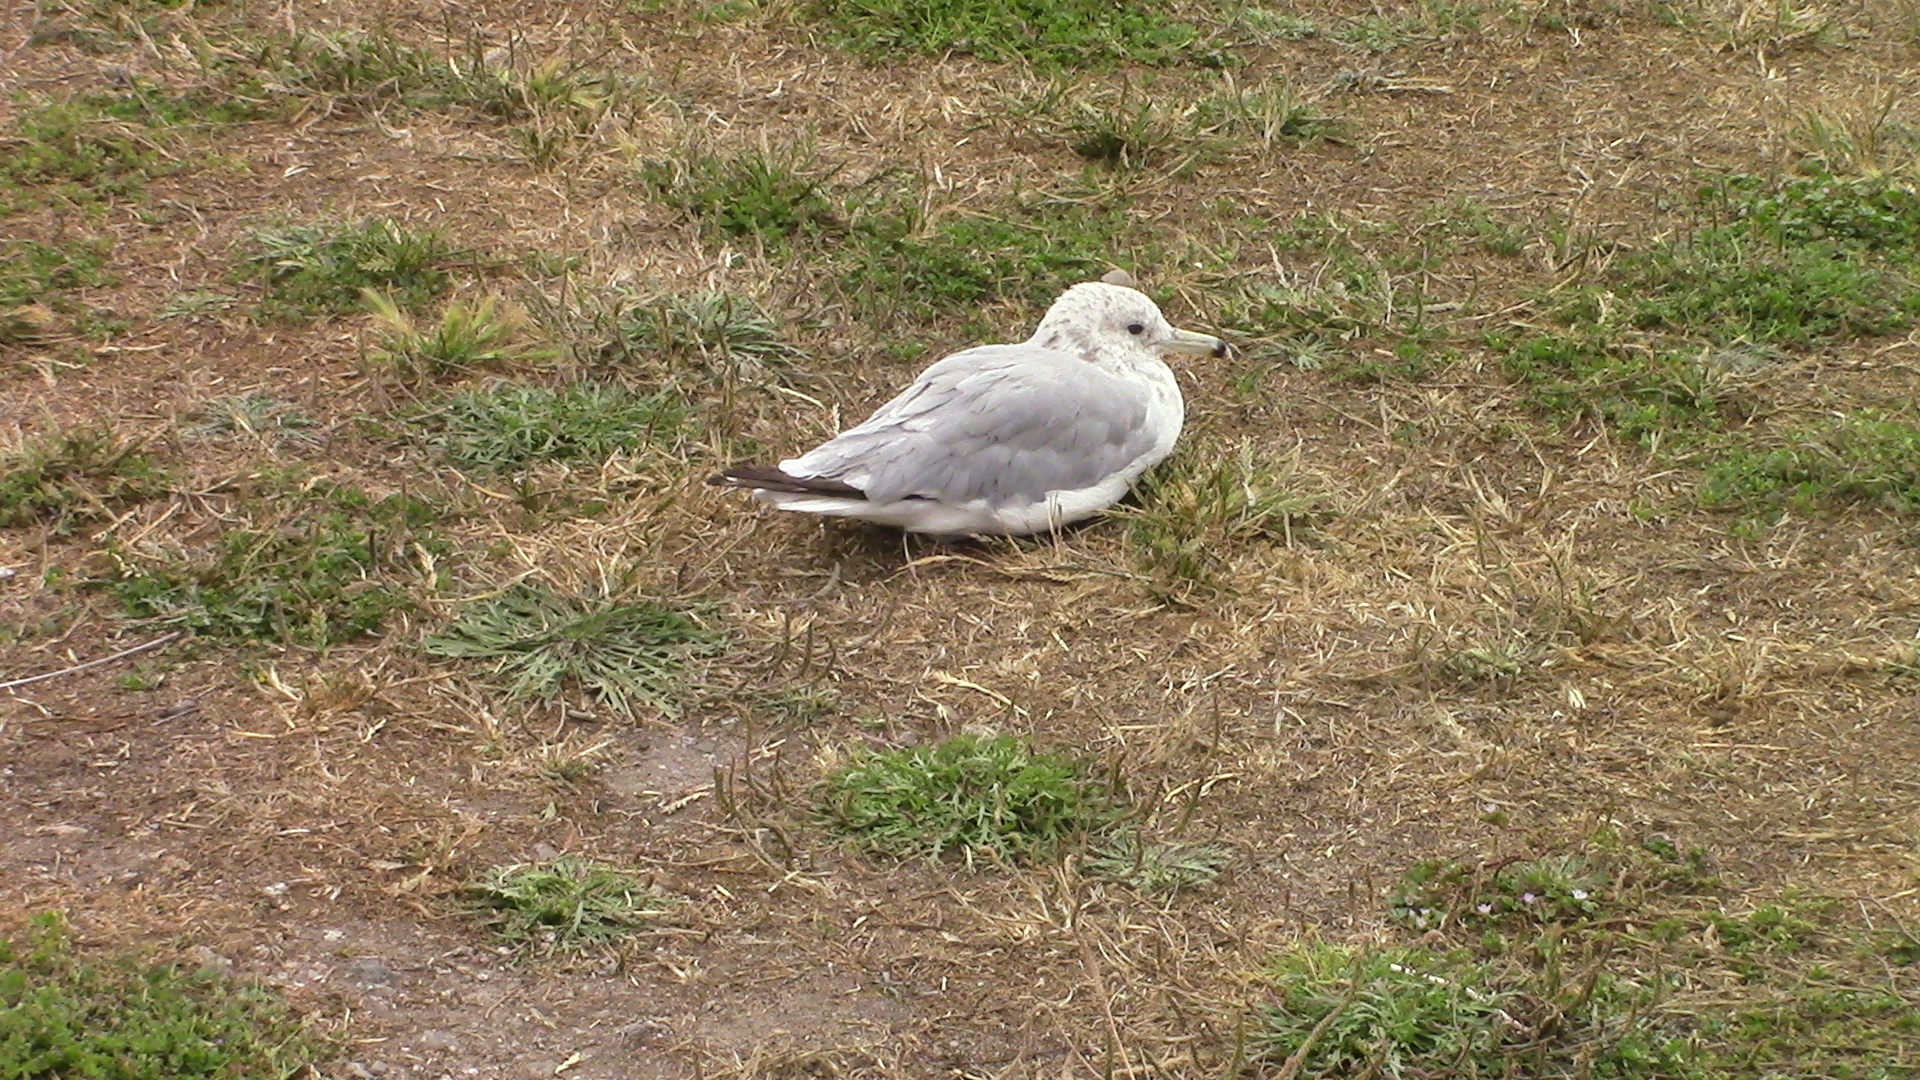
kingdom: Animalia
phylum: Chordata
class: Aves
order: Charadriiformes
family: Laridae
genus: Larus
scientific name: Larus delawarensis
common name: Ring-billed gull
